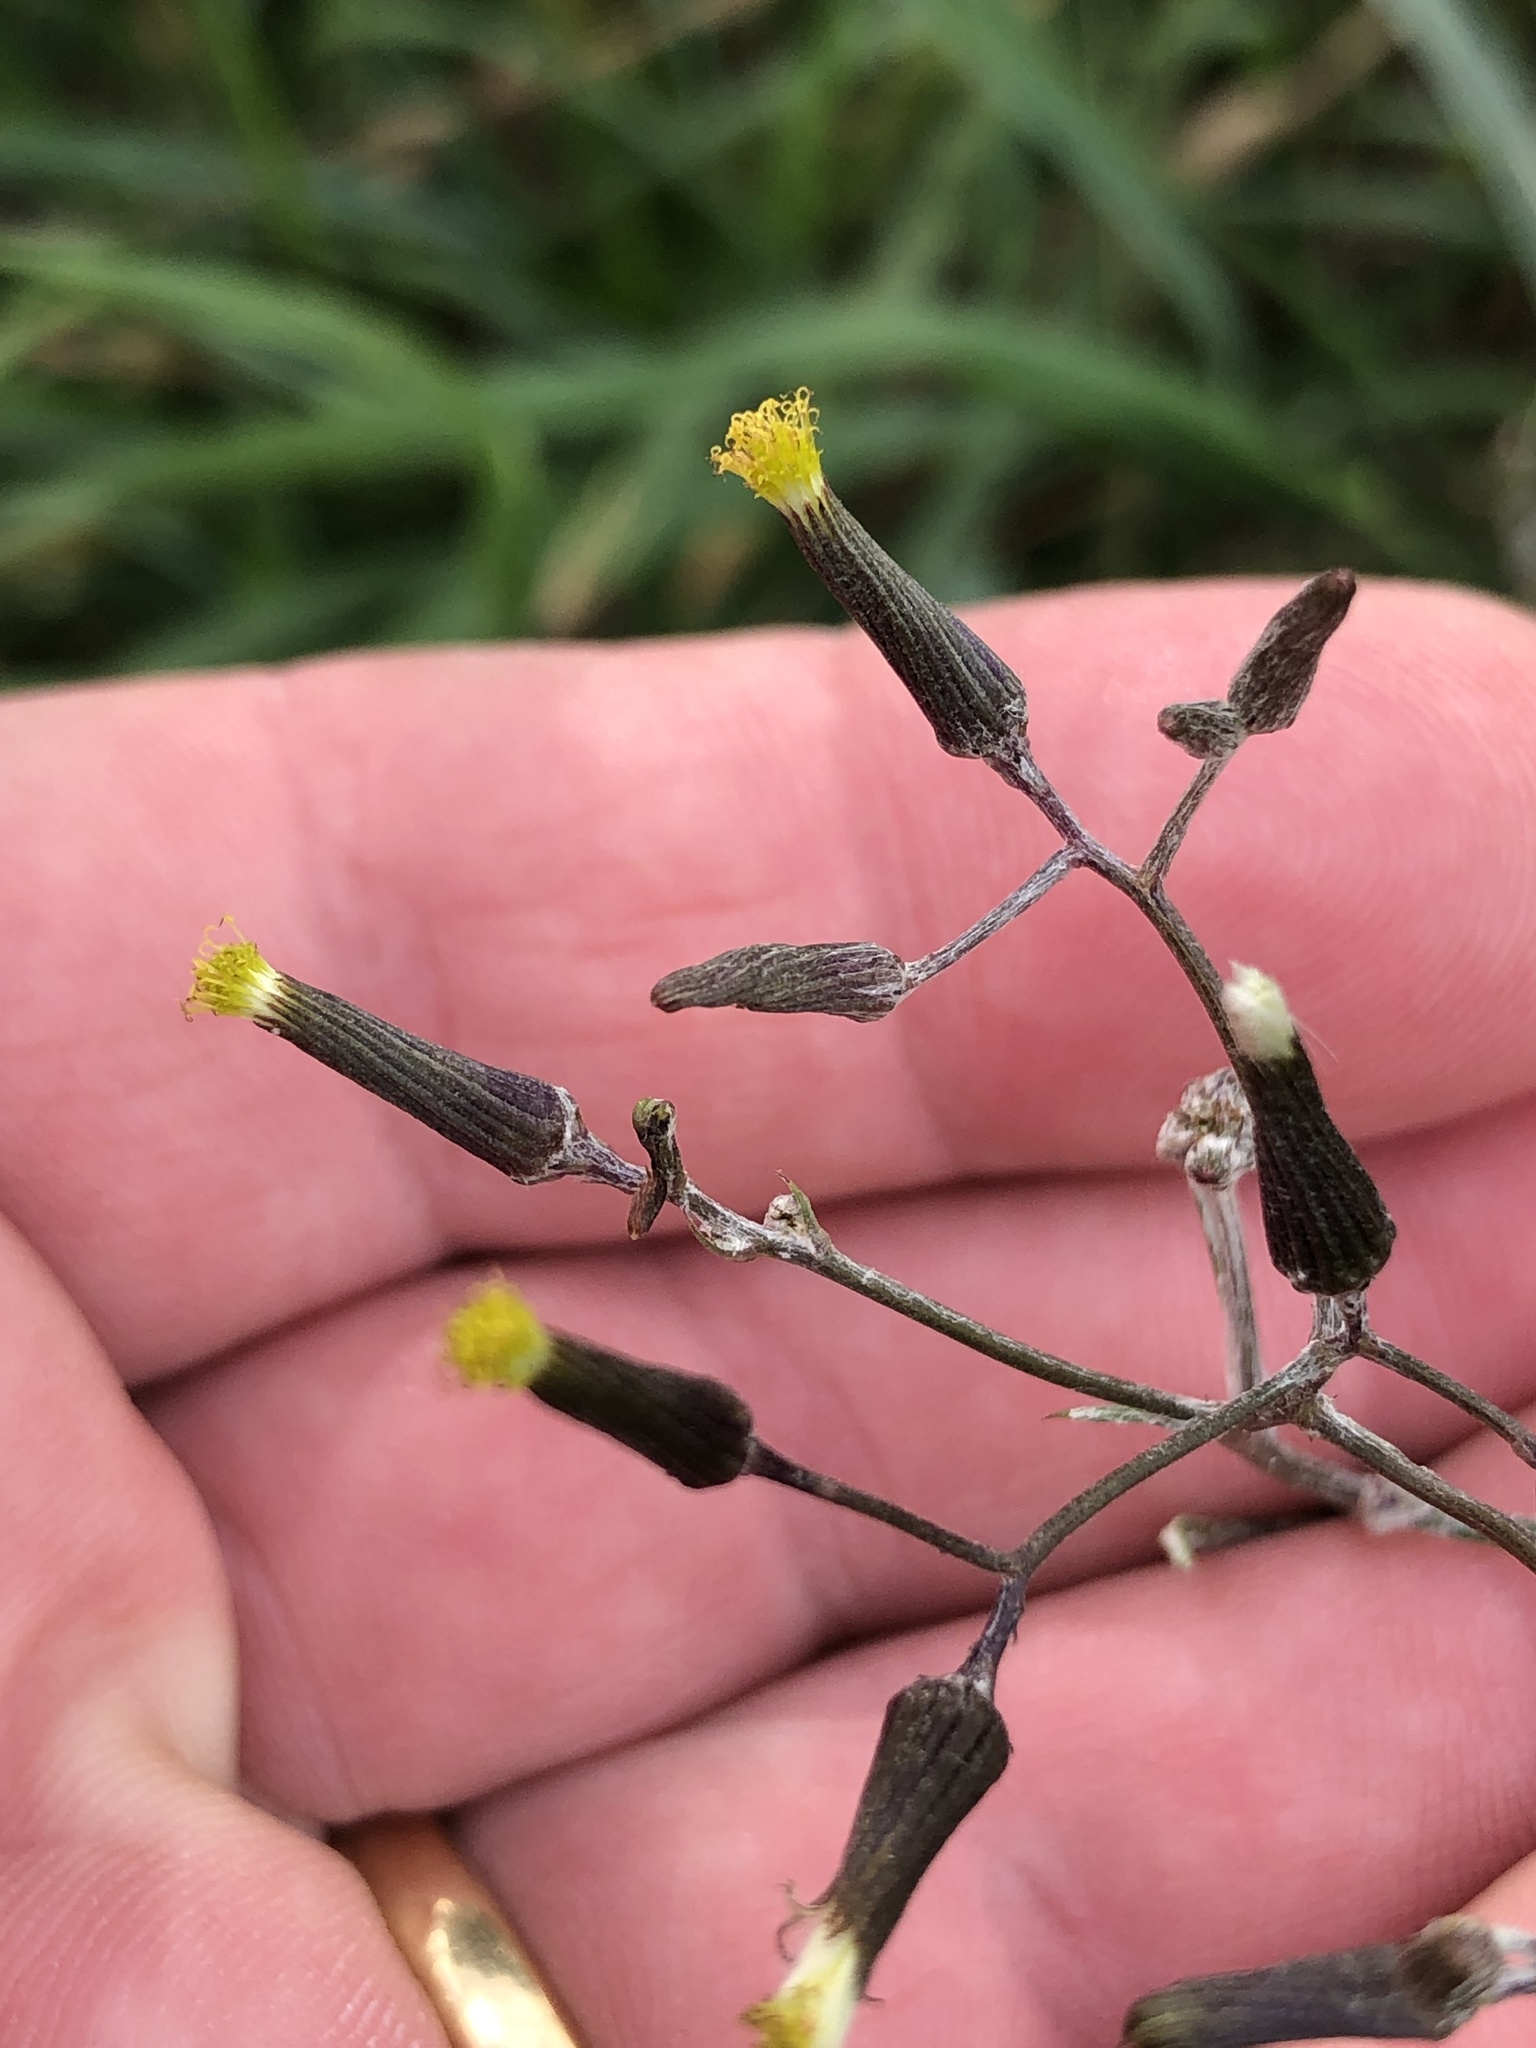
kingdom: Plantae
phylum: Tracheophyta
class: Magnoliopsida
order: Asterales
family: Asteraceae
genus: Senecio
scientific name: Senecio quadridentatus
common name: Cotton fireweed
